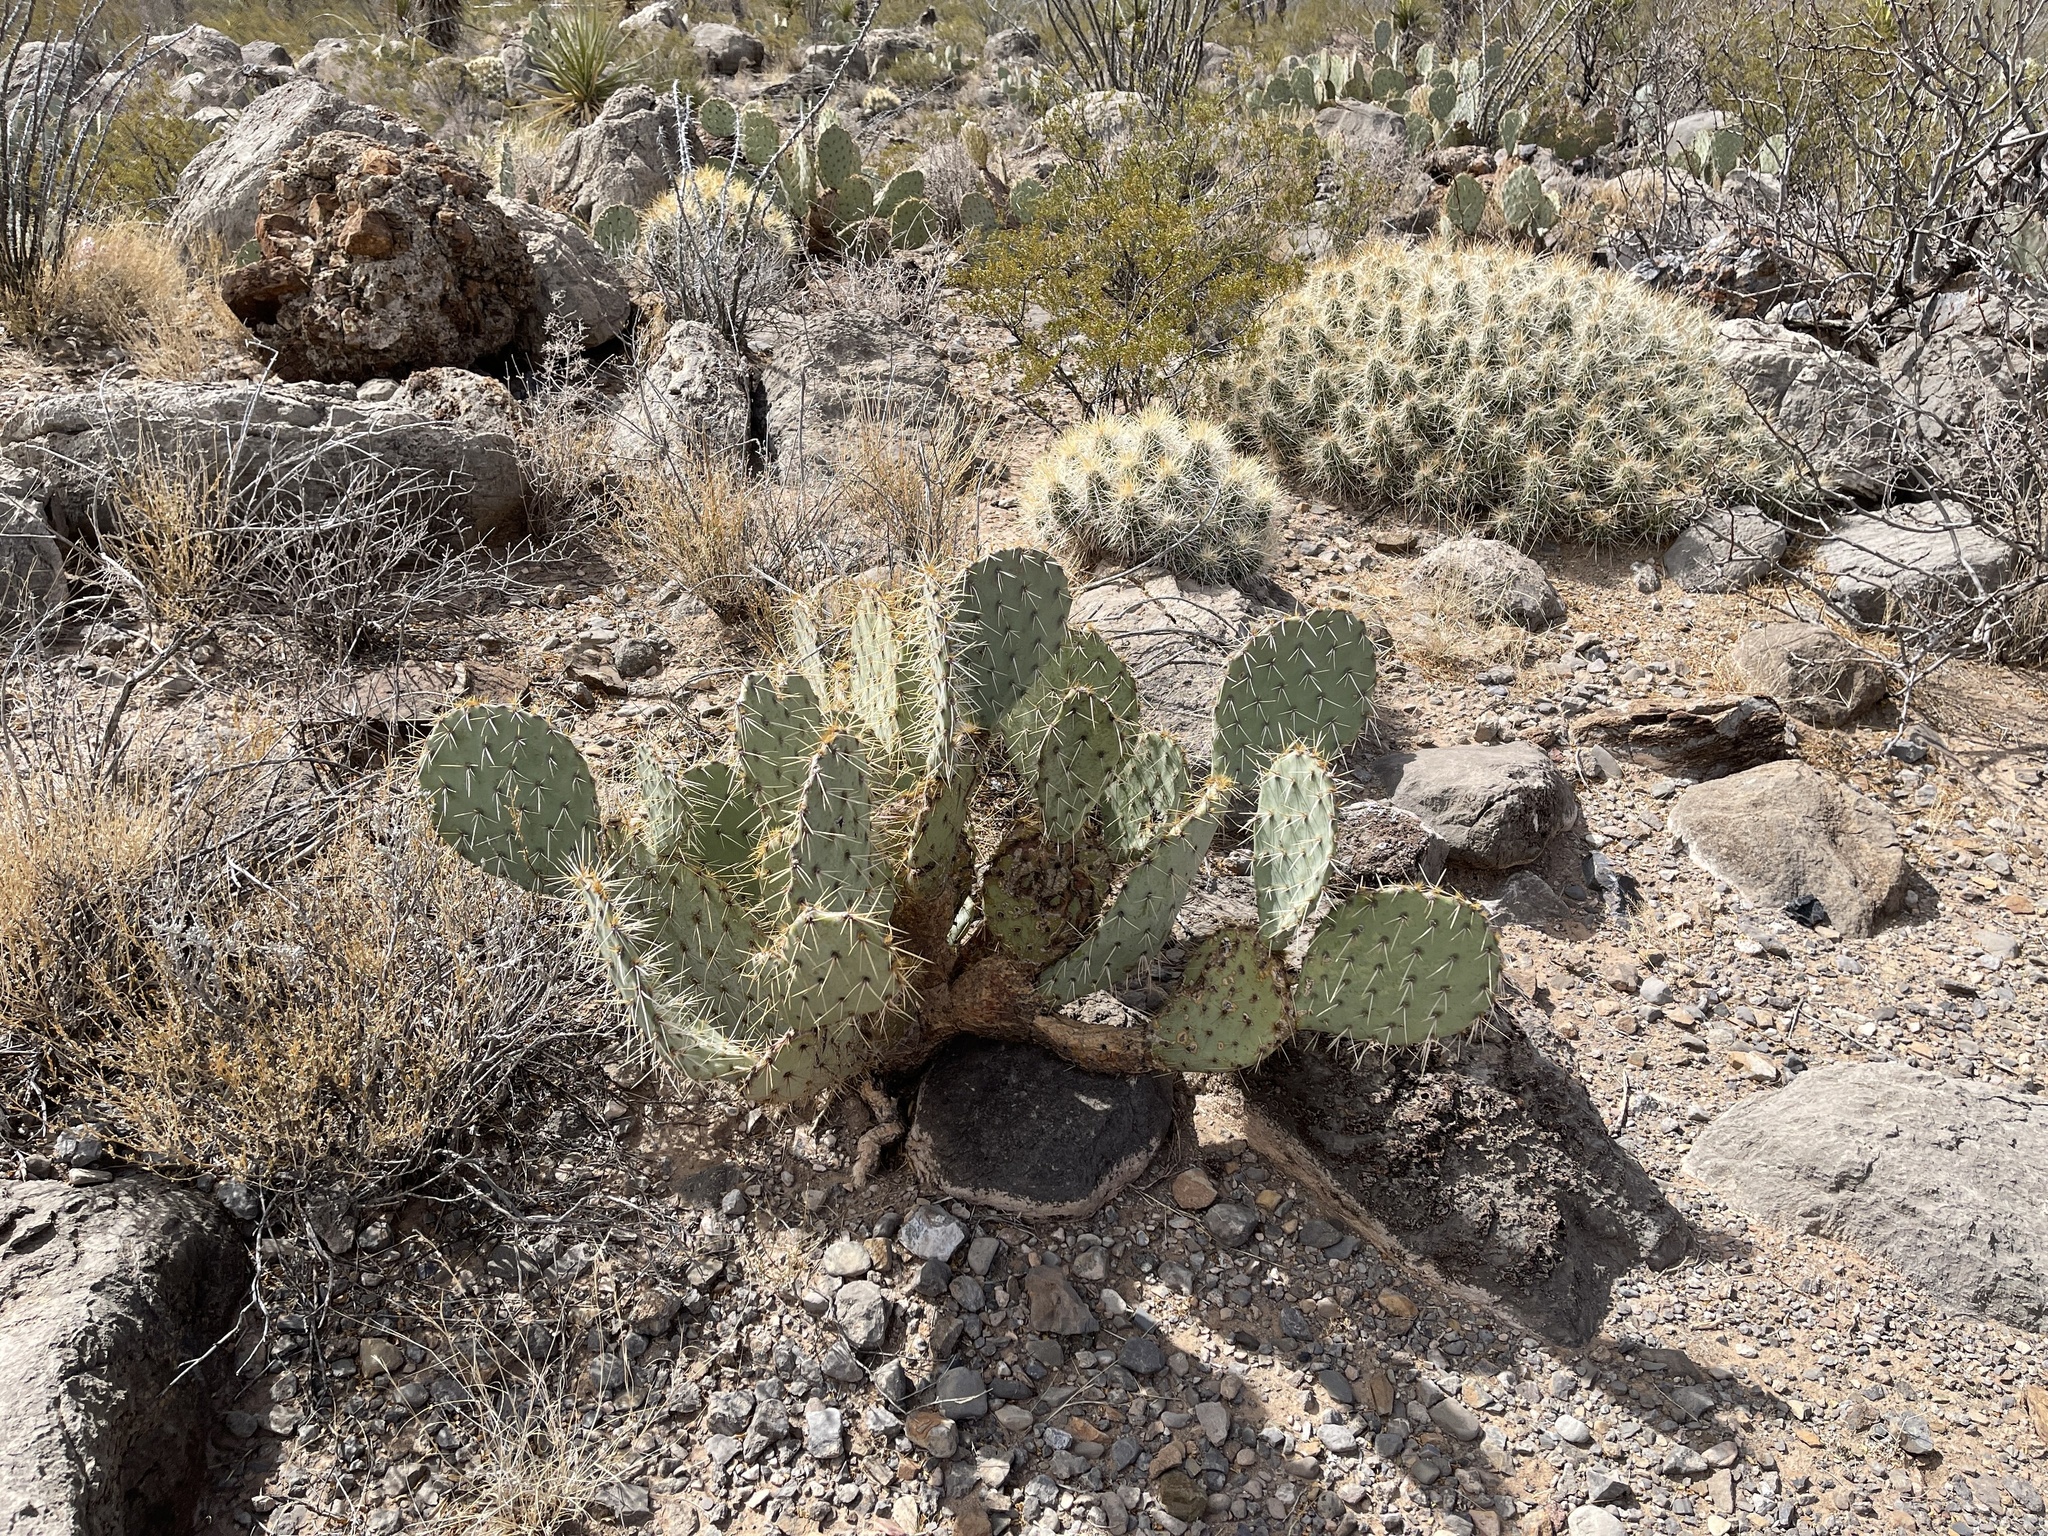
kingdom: Plantae
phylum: Tracheophyta
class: Magnoliopsida
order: Caryophyllales
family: Cactaceae
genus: Opuntia
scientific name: Opuntia engelmannii
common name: Cactus-apple
